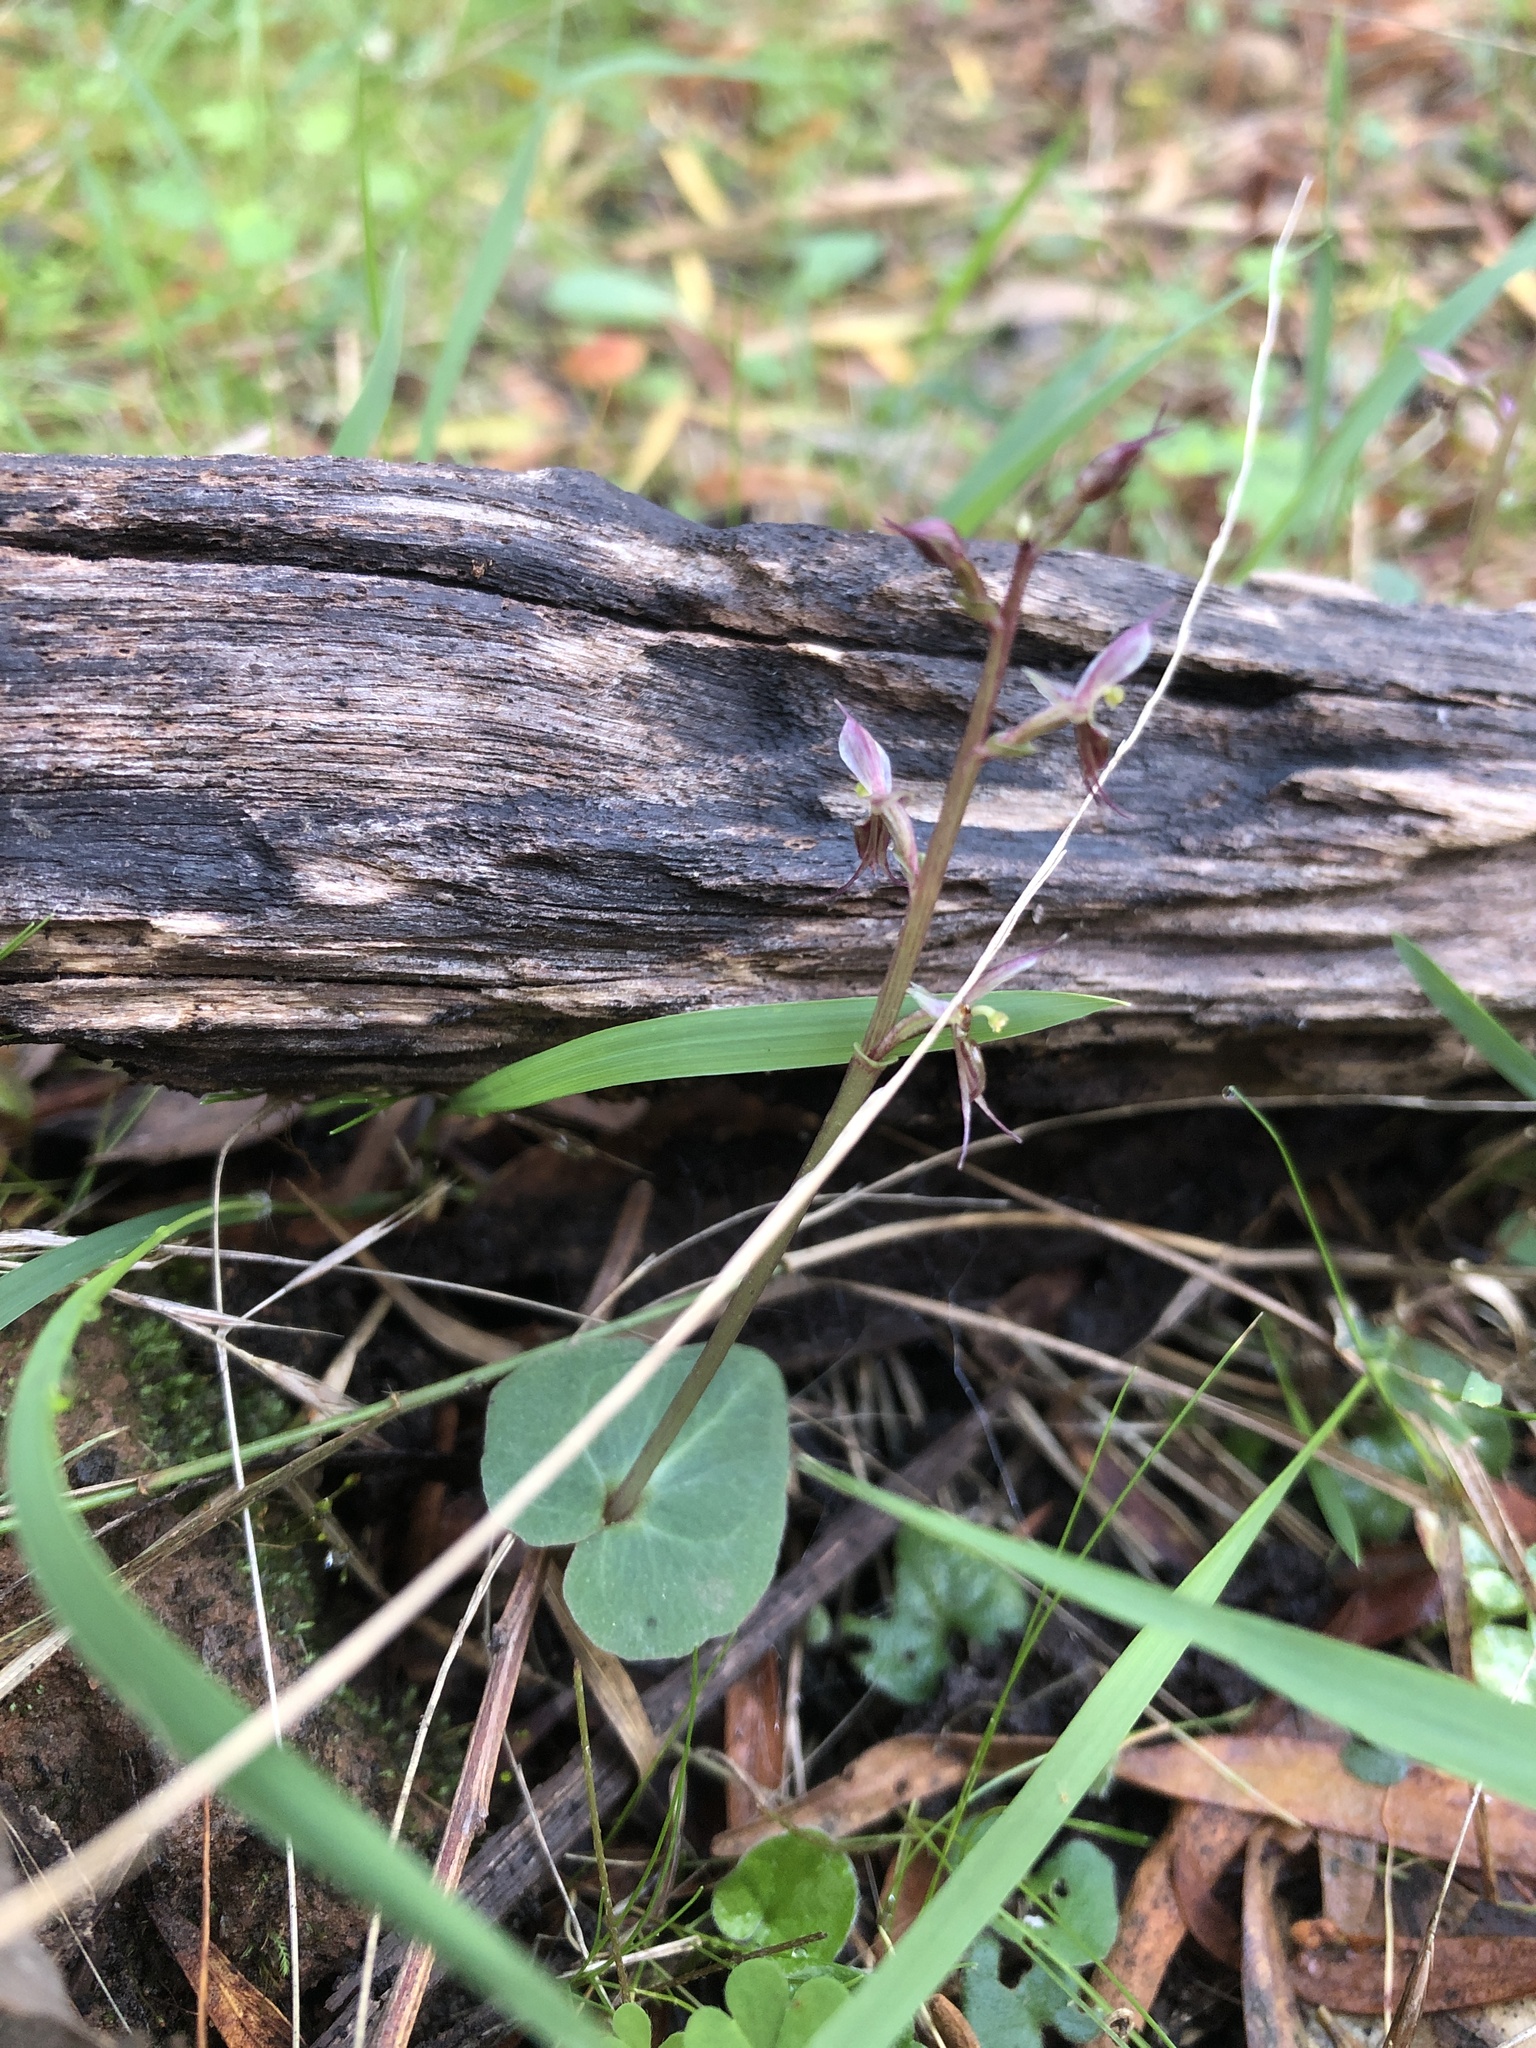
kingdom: Plantae
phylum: Tracheophyta
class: Liliopsida
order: Asparagales
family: Orchidaceae
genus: Acianthus
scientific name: Acianthus pusillus
